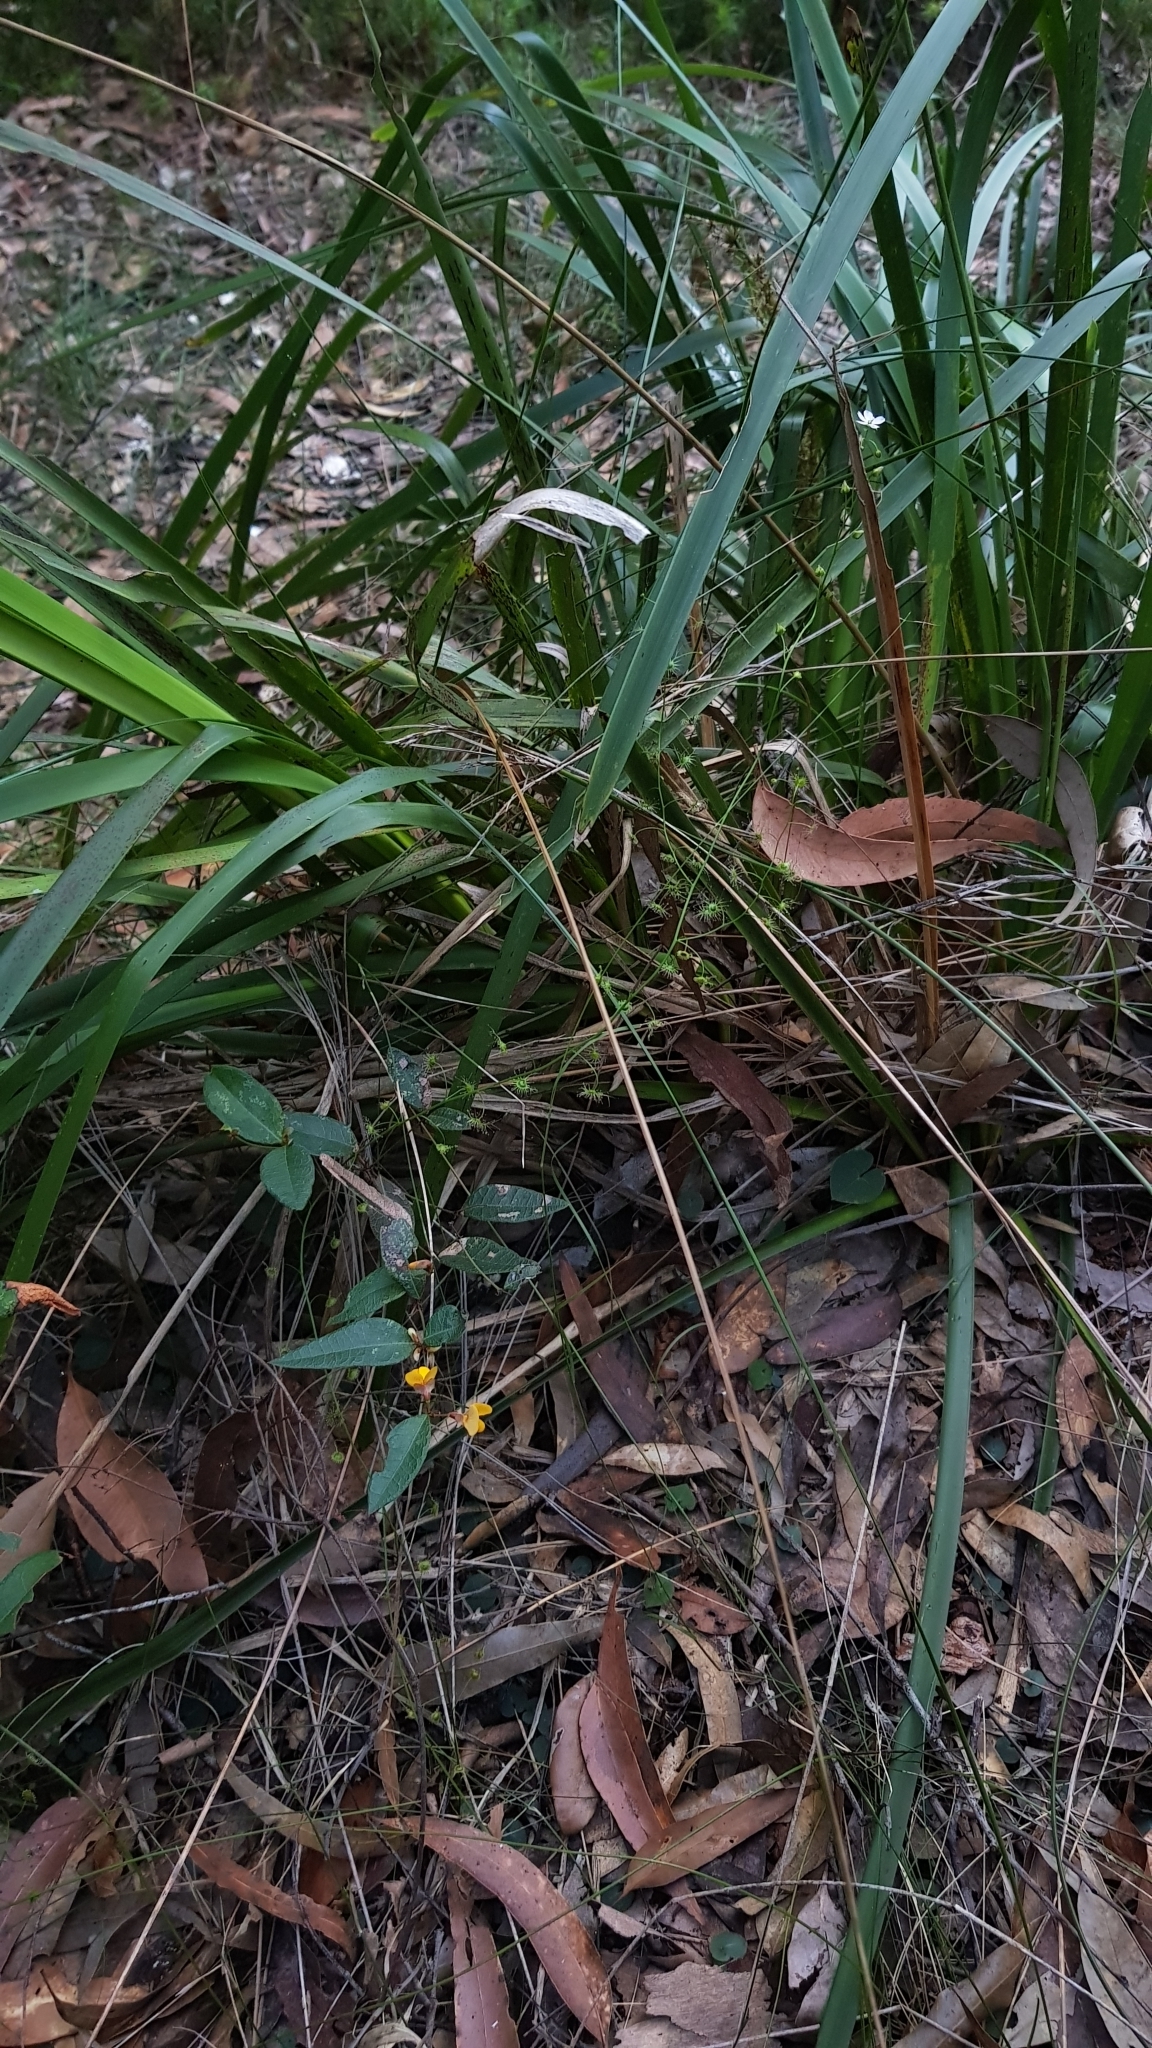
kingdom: Plantae
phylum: Tracheophyta
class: Magnoliopsida
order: Caryophyllales
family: Droseraceae
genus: Drosera
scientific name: Drosera peltata
